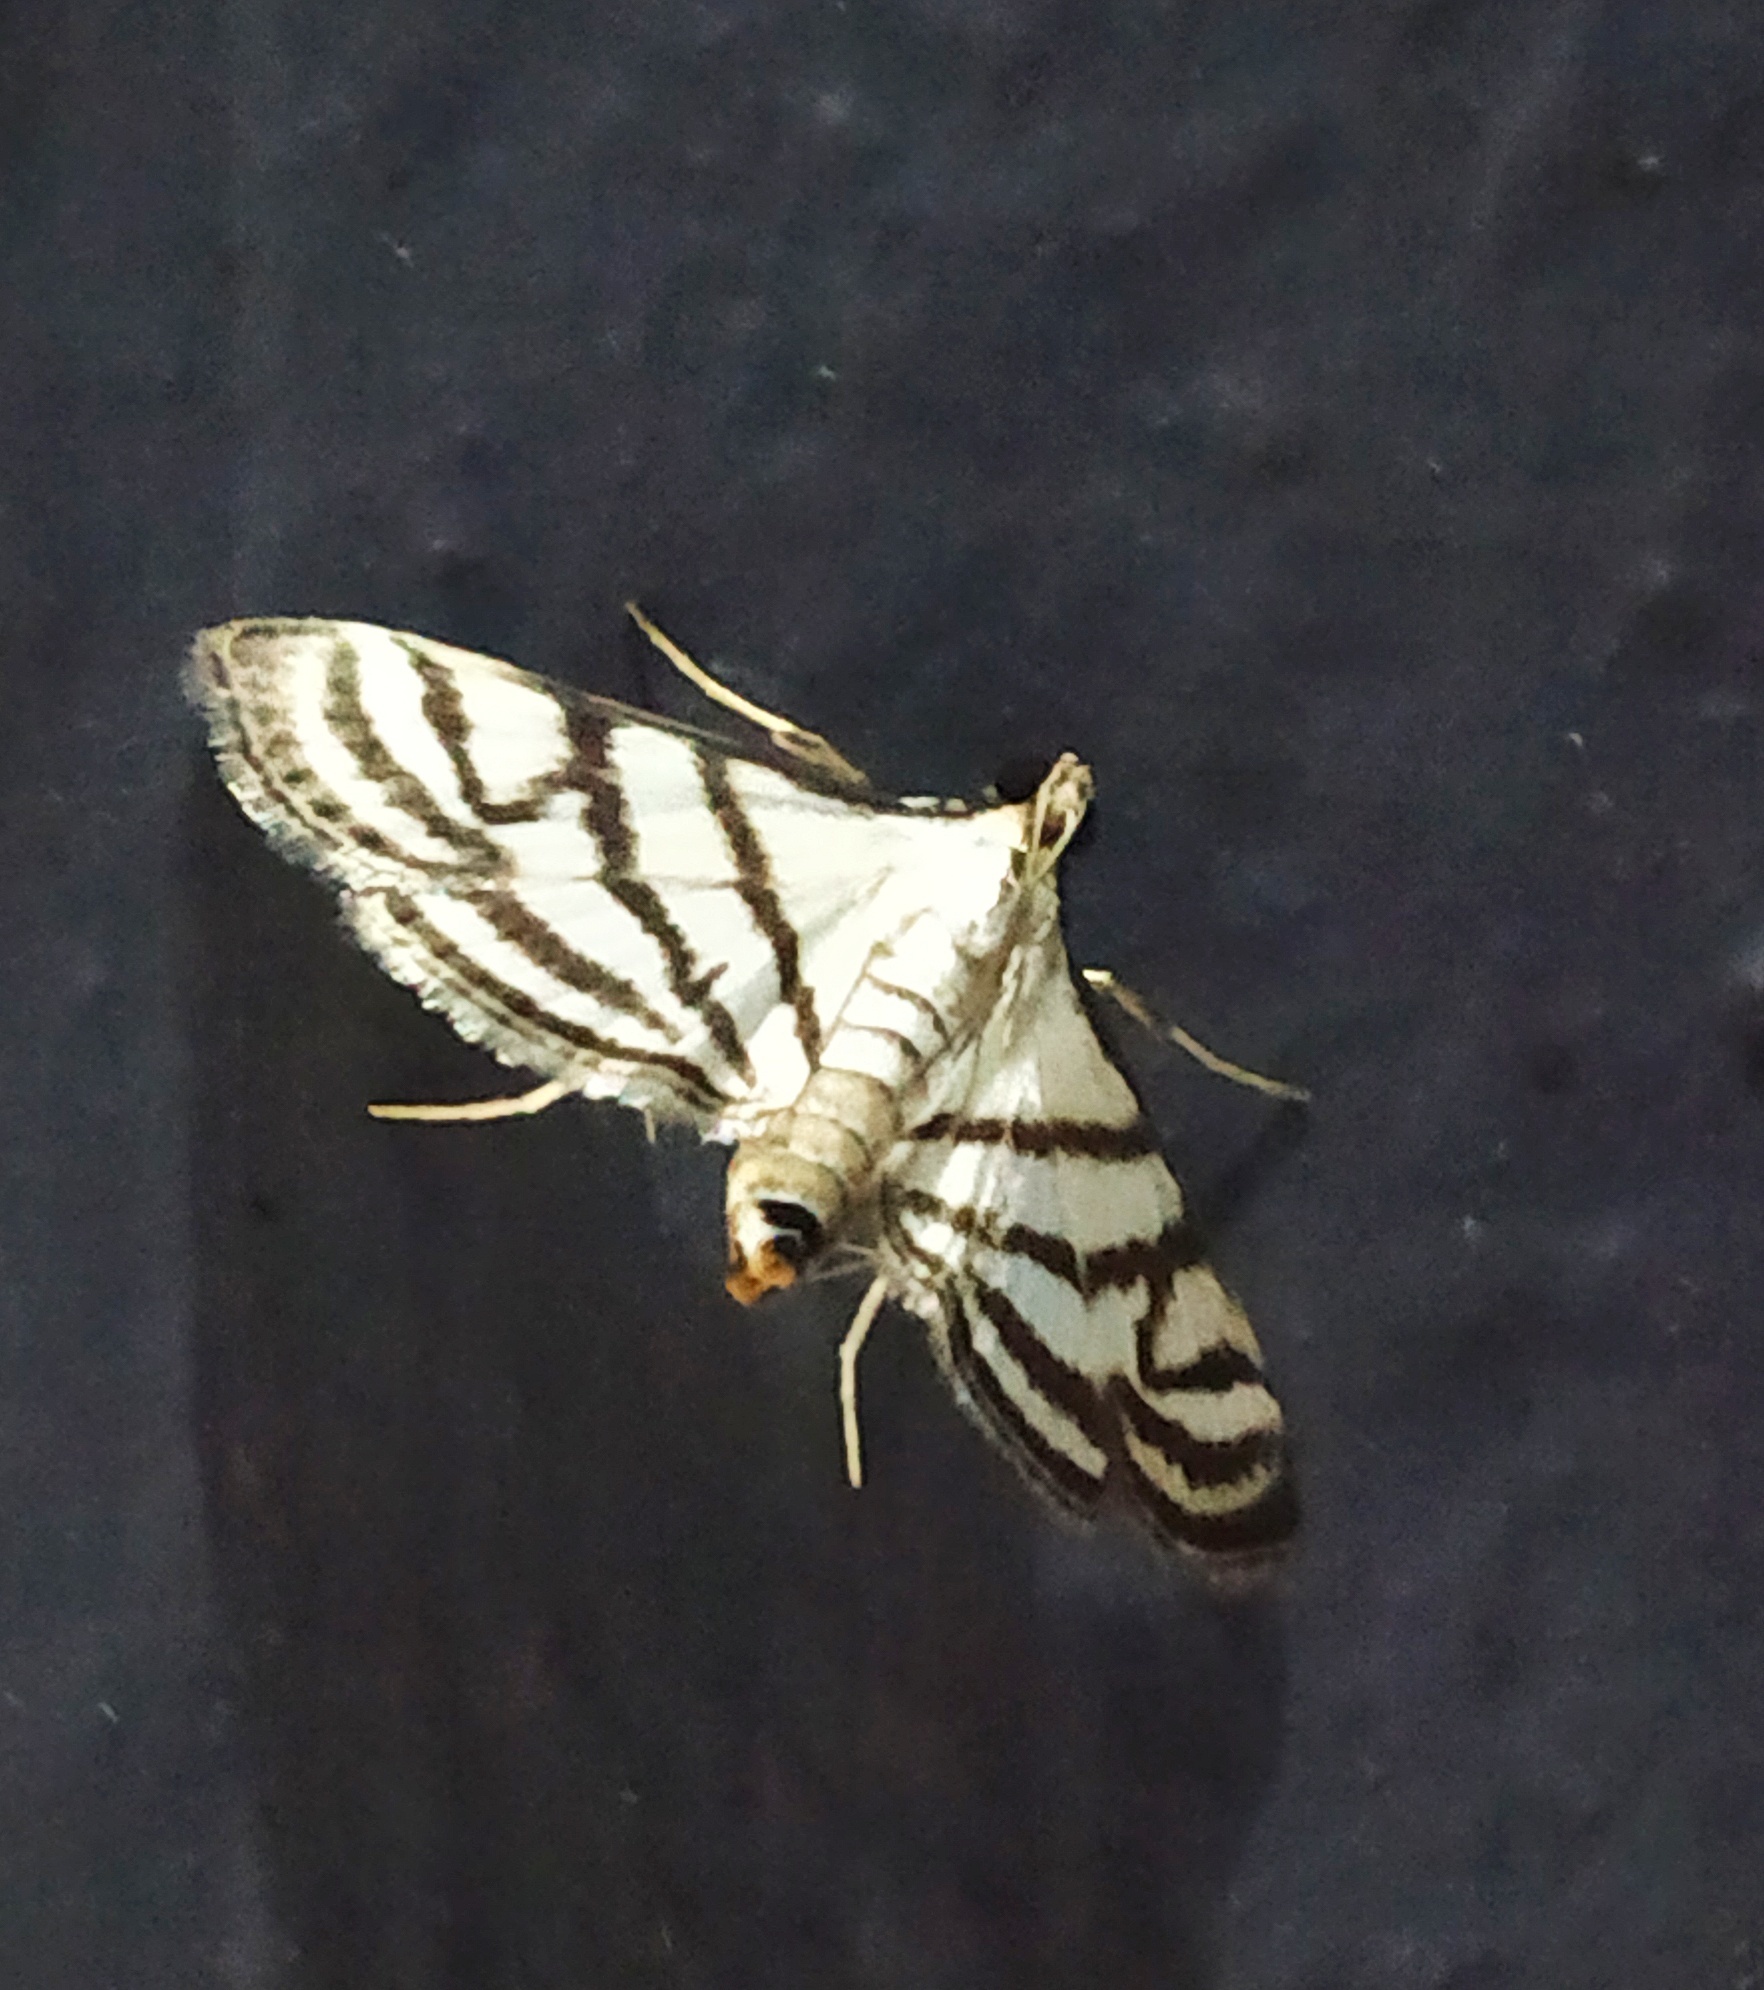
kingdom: Animalia
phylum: Arthropoda
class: Insecta
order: Lepidoptera
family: Crambidae
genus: Ravanoa
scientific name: Ravanoa xiphialis
